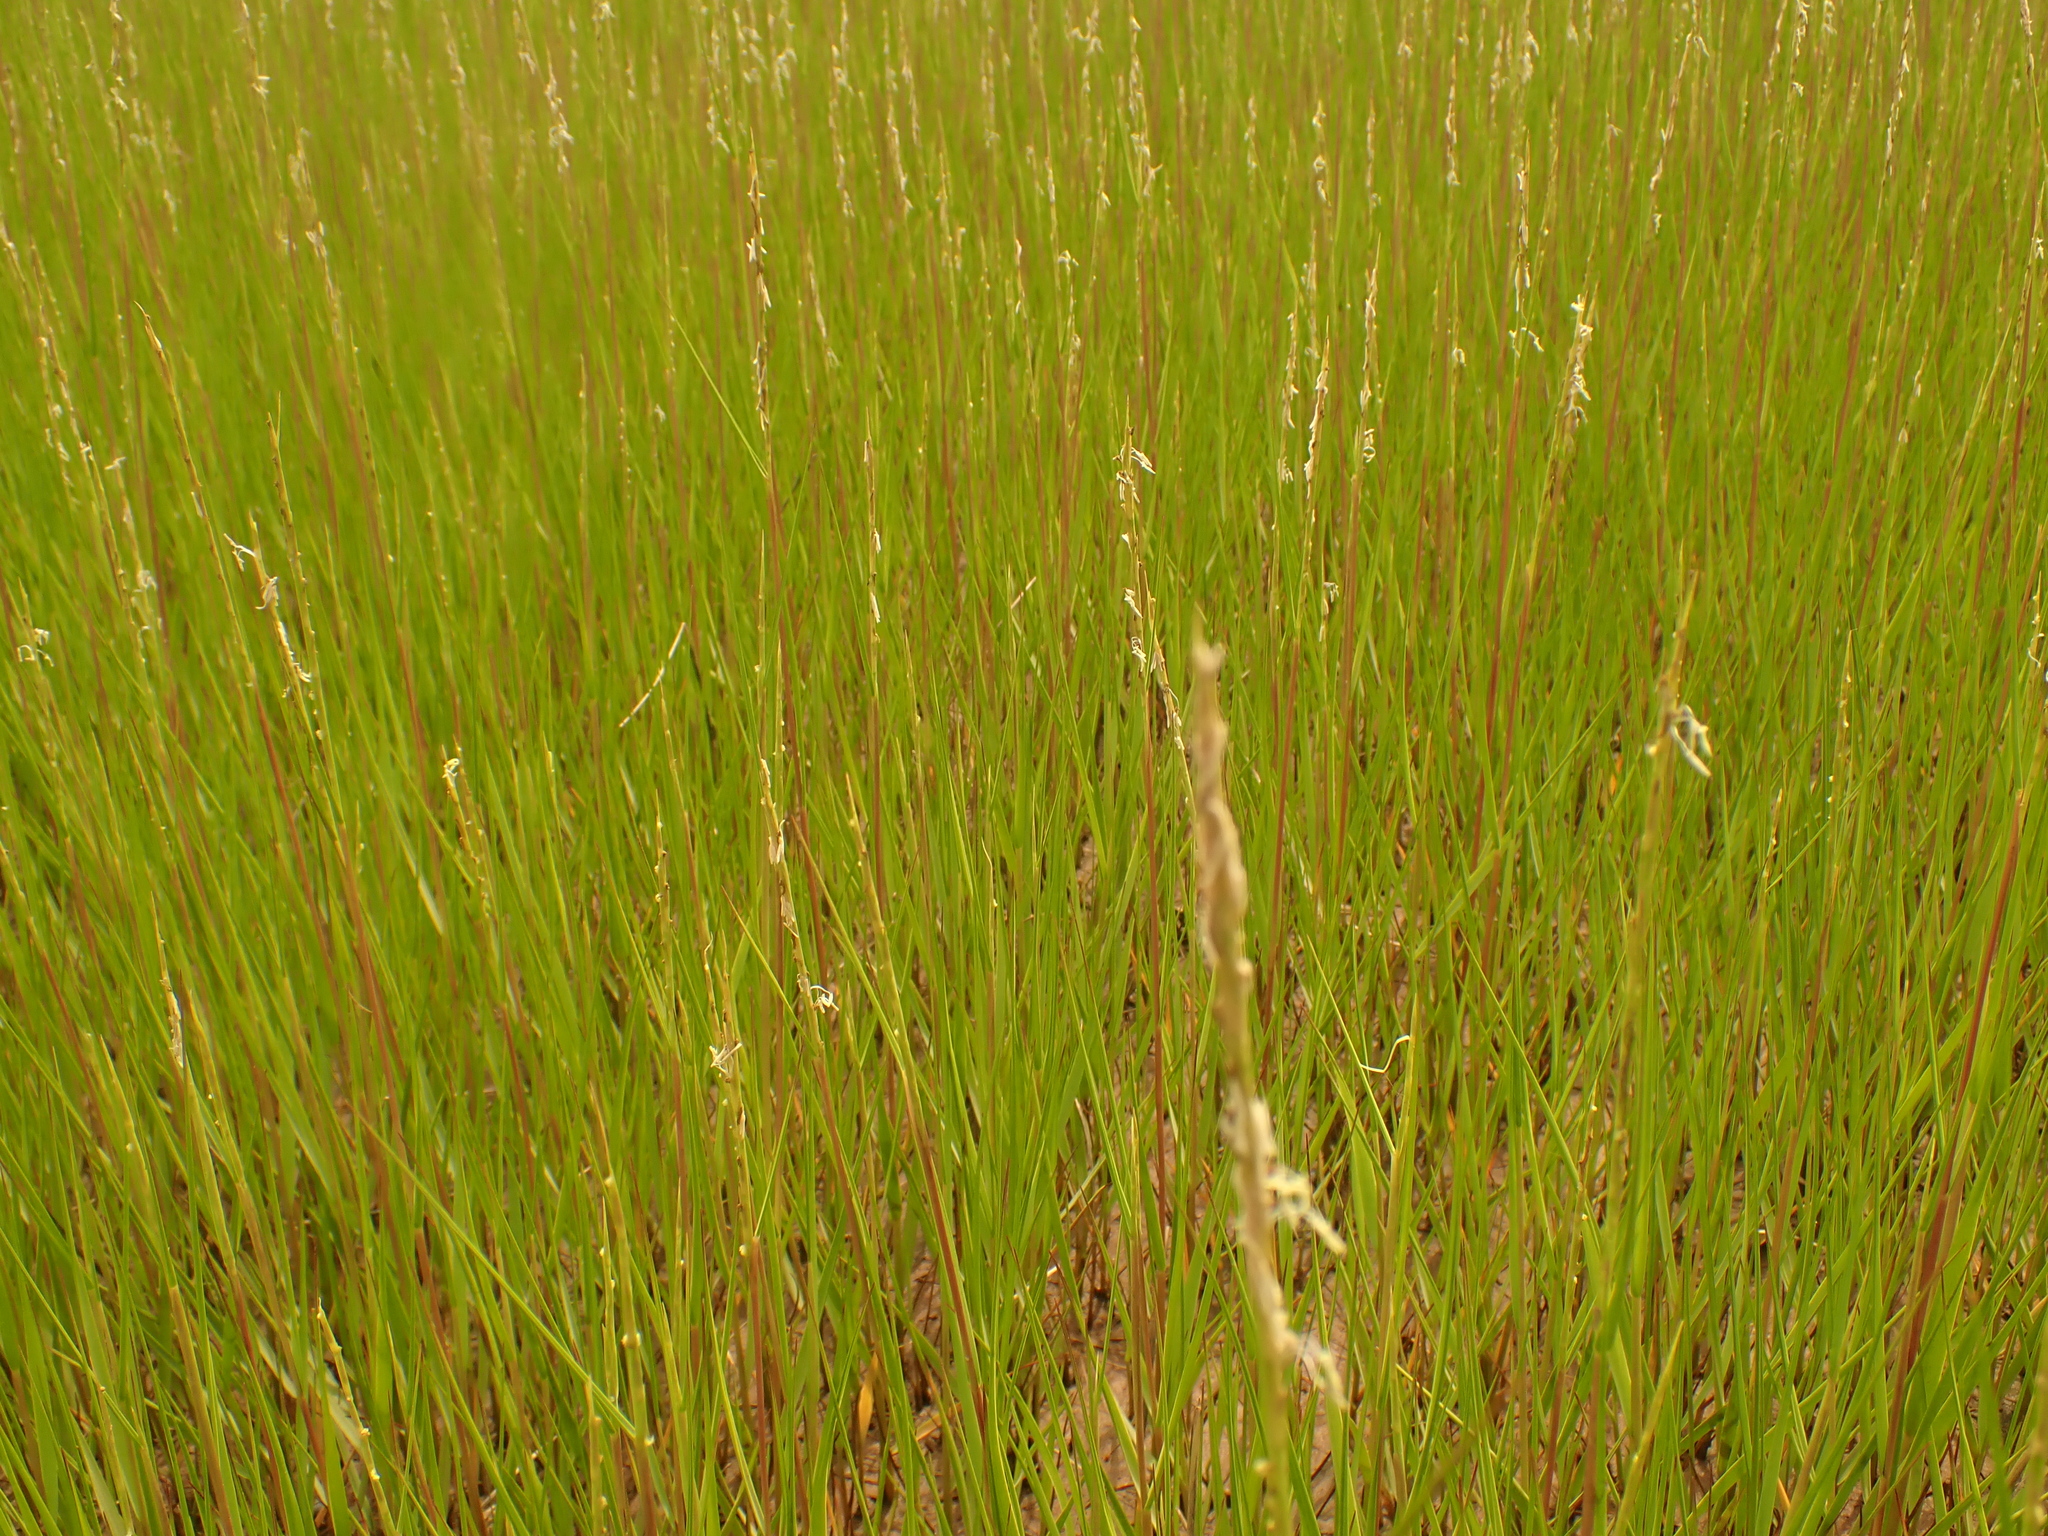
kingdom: Plantae
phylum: Tracheophyta
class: Liliopsida
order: Poales
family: Poaceae
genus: Sporobolus
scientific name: Sporobolus alterniflorus
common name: Atlantic cordgrass
